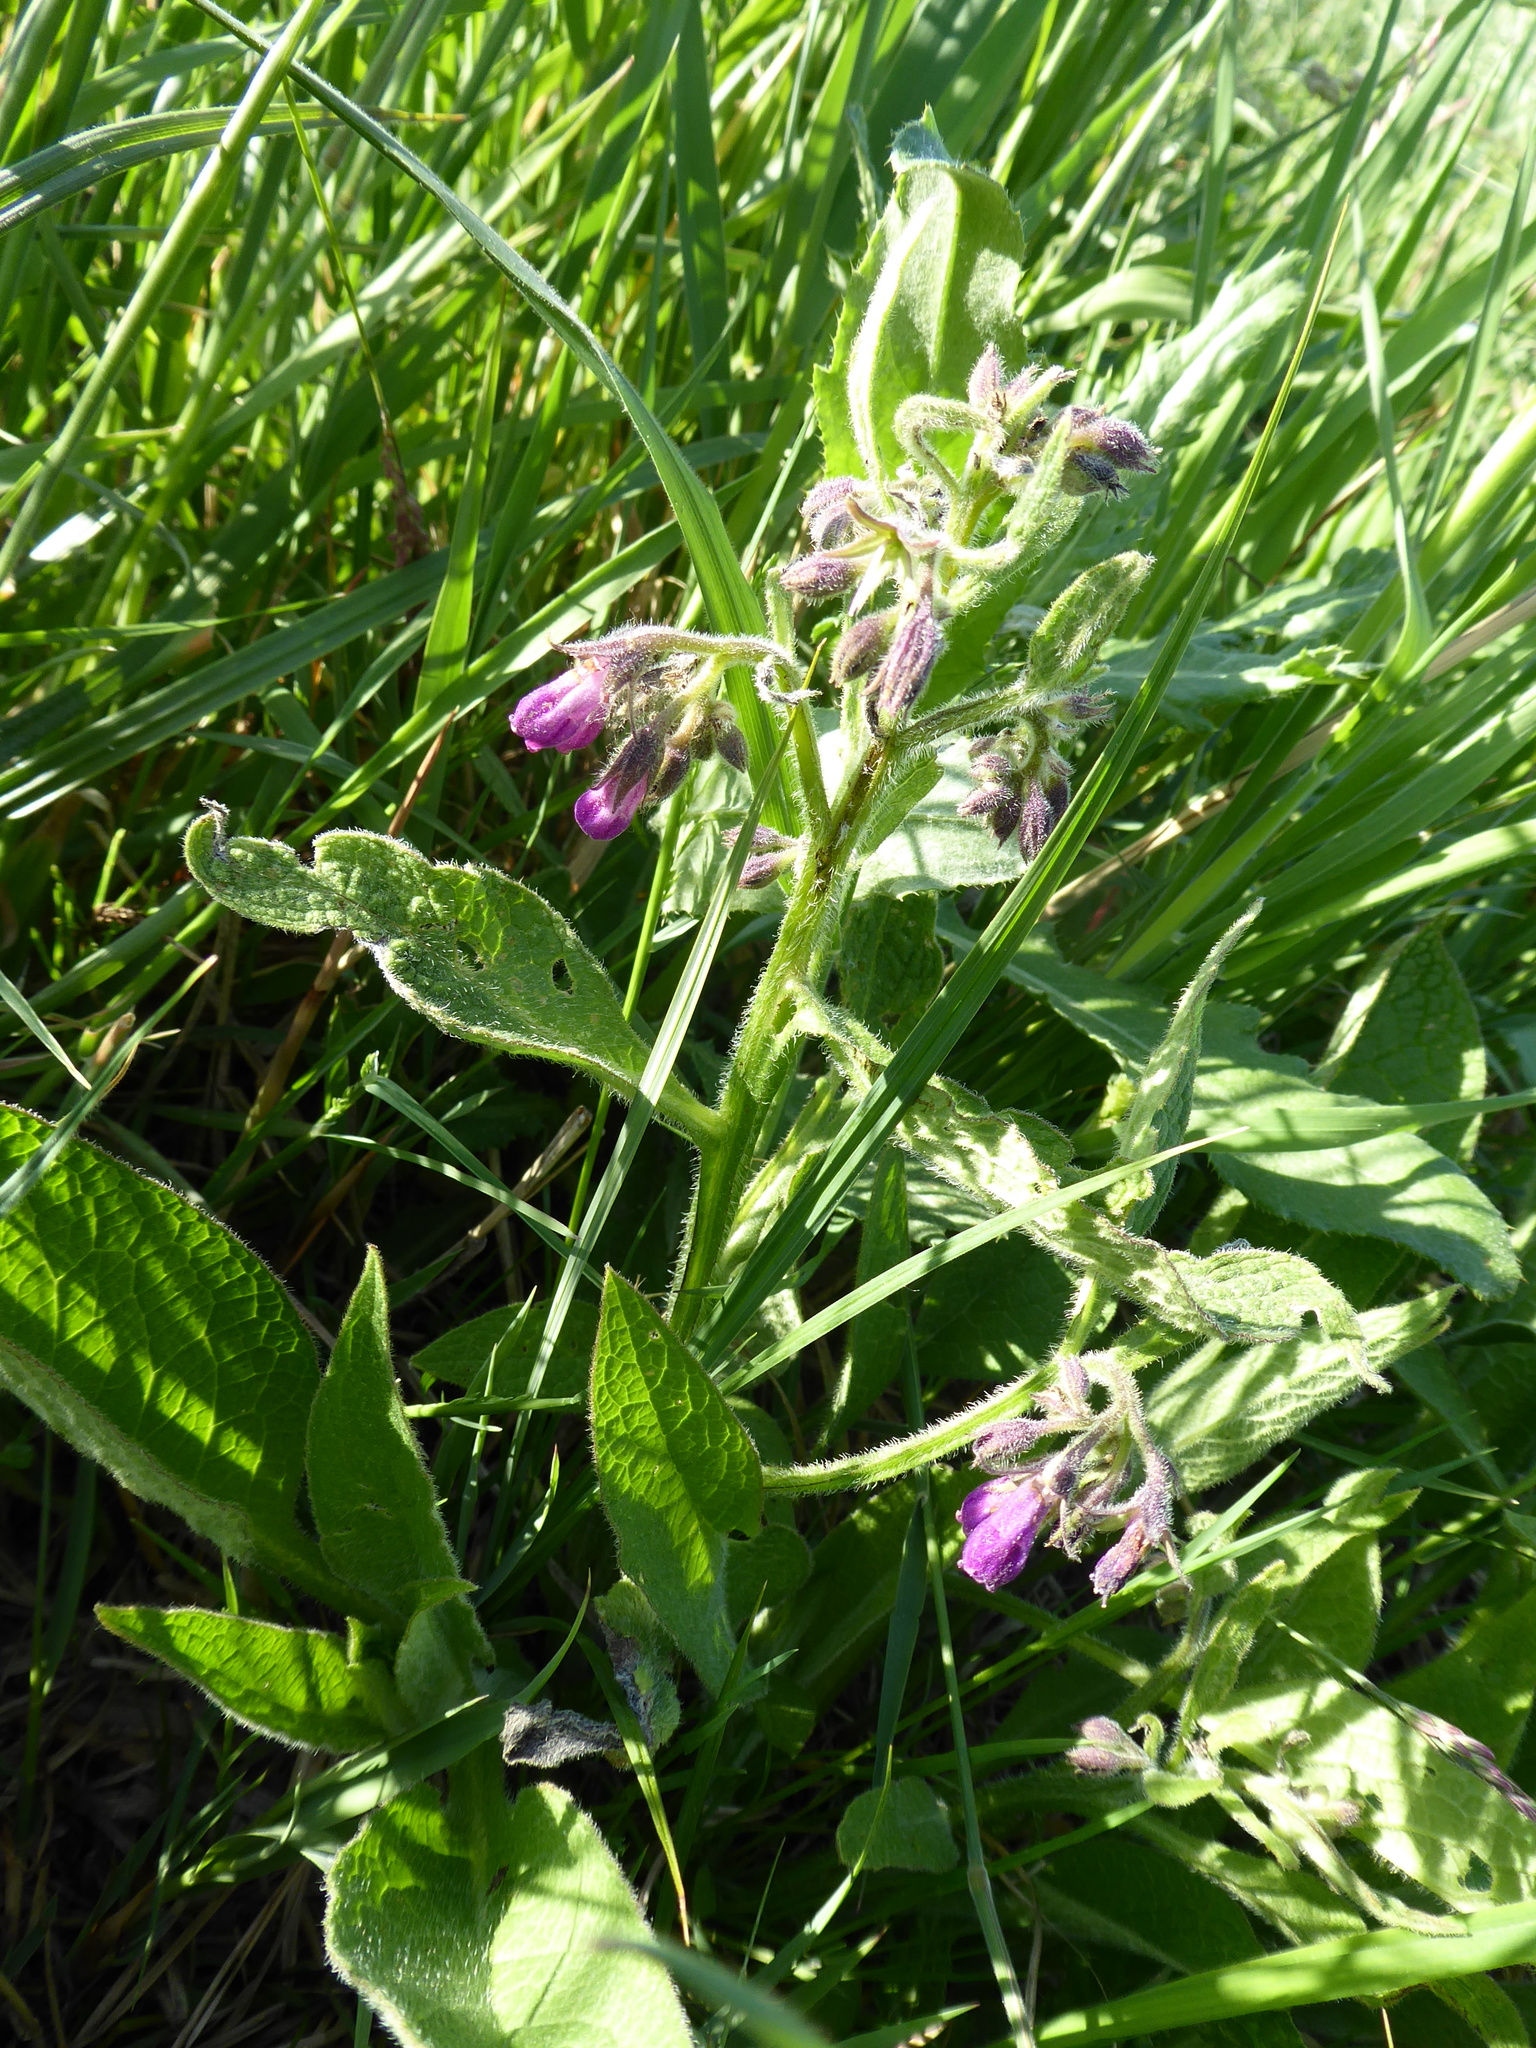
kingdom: Plantae
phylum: Tracheophyta
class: Magnoliopsida
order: Boraginales
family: Boraginaceae
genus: Symphytum
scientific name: Symphytum officinale
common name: Common comfrey
